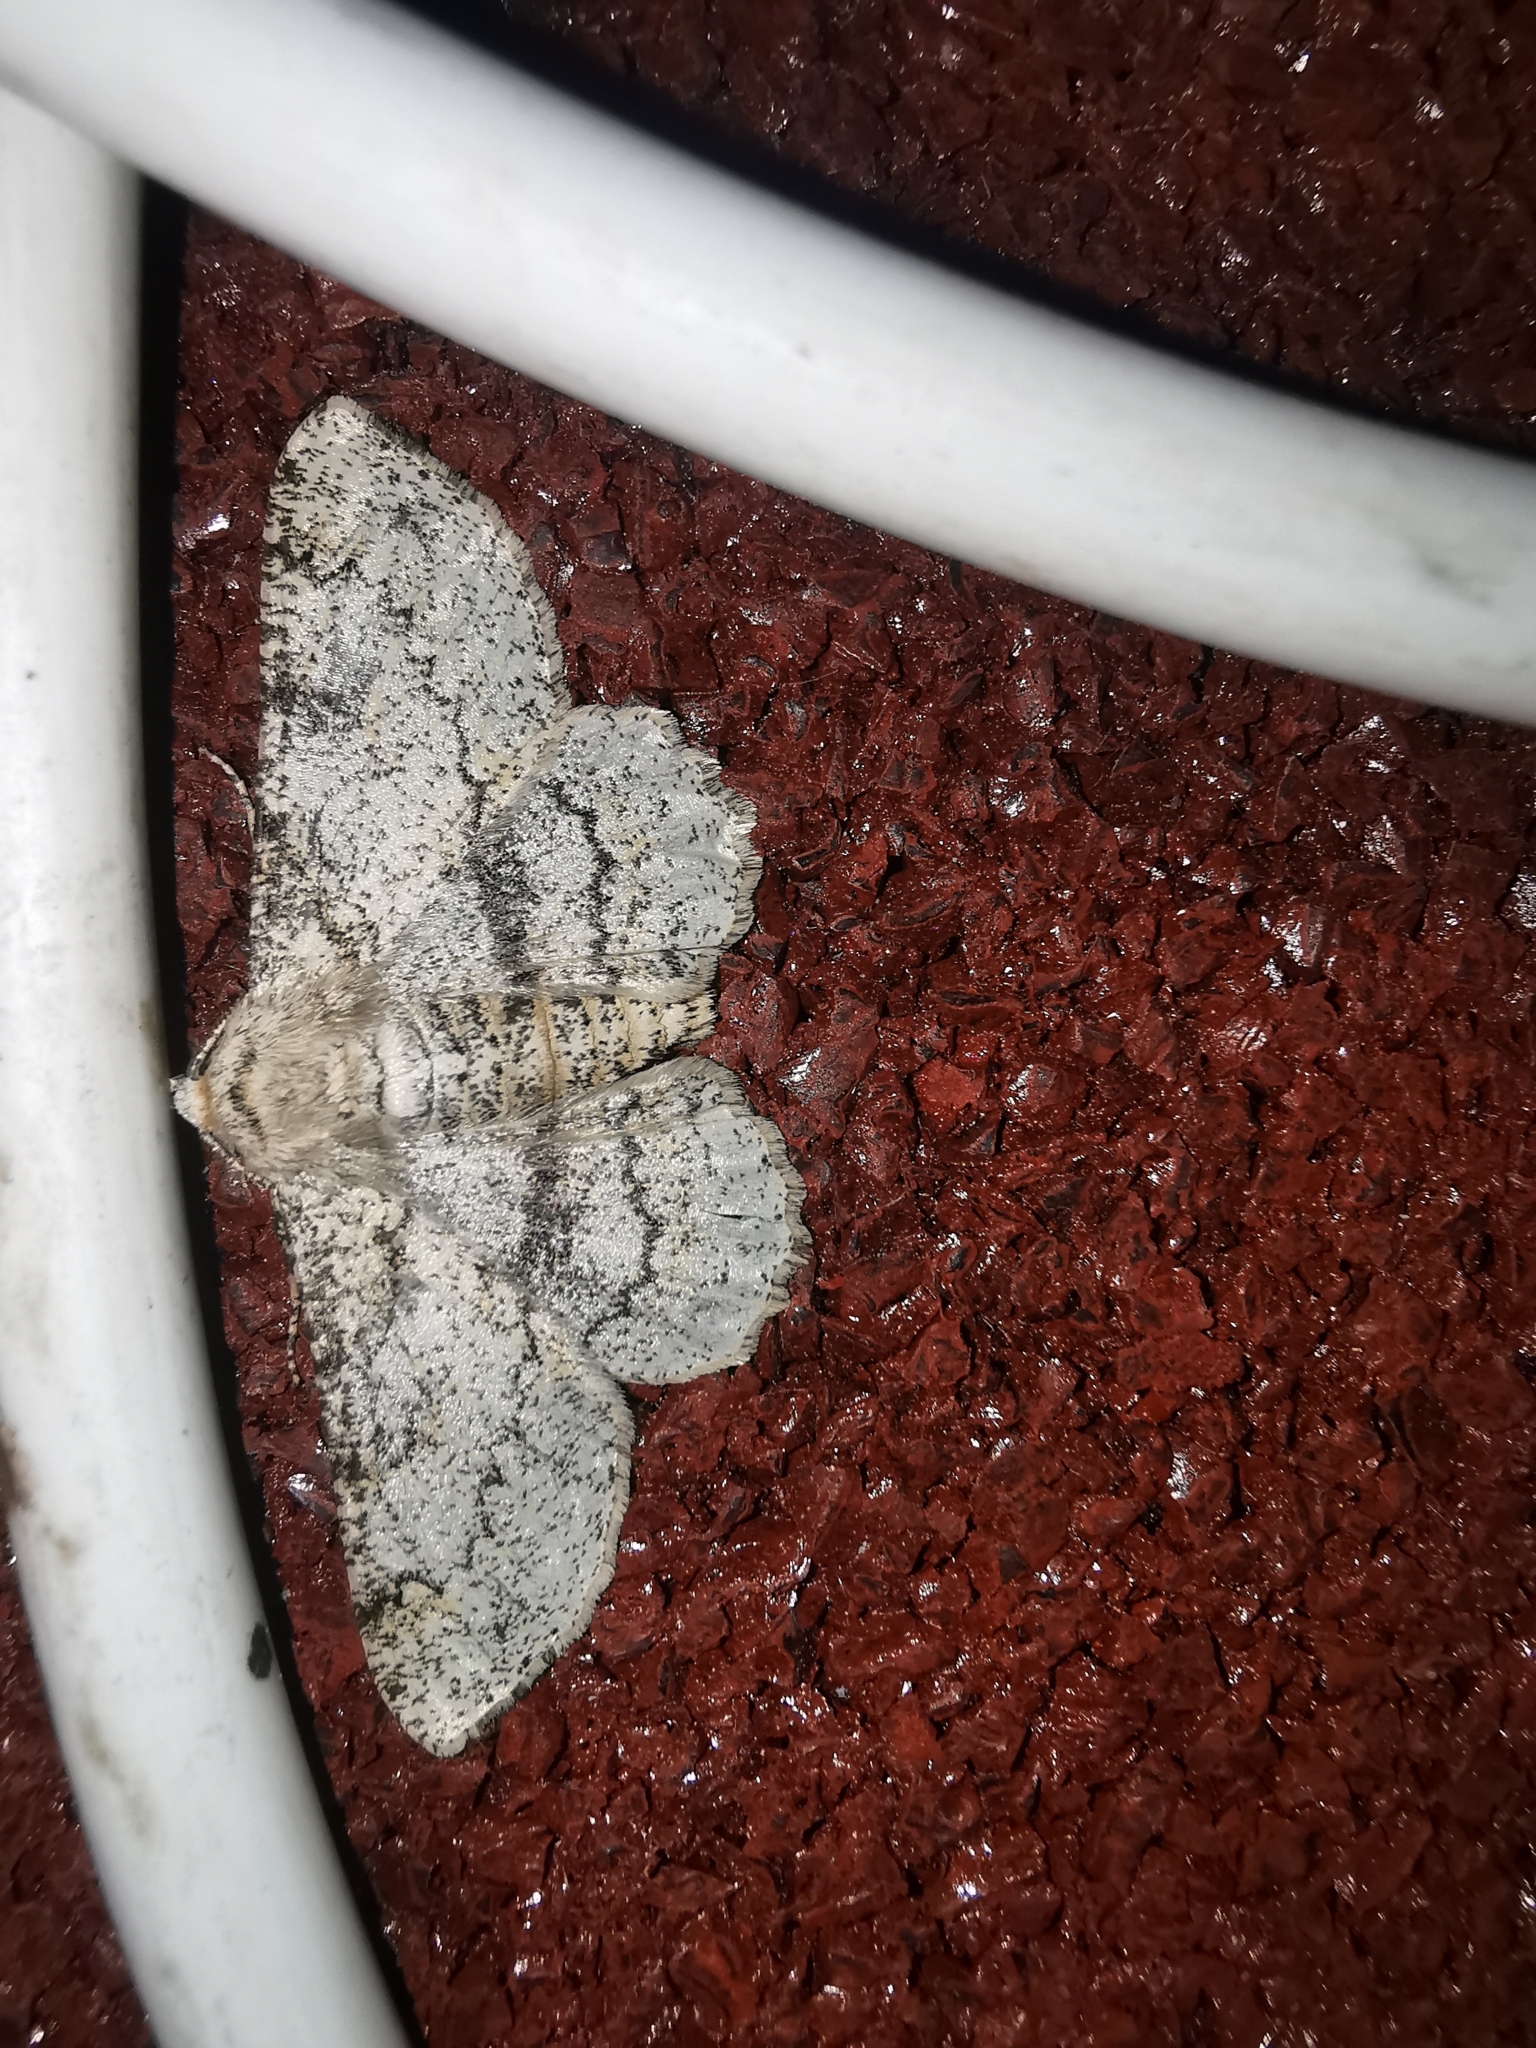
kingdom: Animalia
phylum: Arthropoda
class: Insecta
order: Lepidoptera
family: Geometridae
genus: Ascotis
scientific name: Ascotis selenaria
